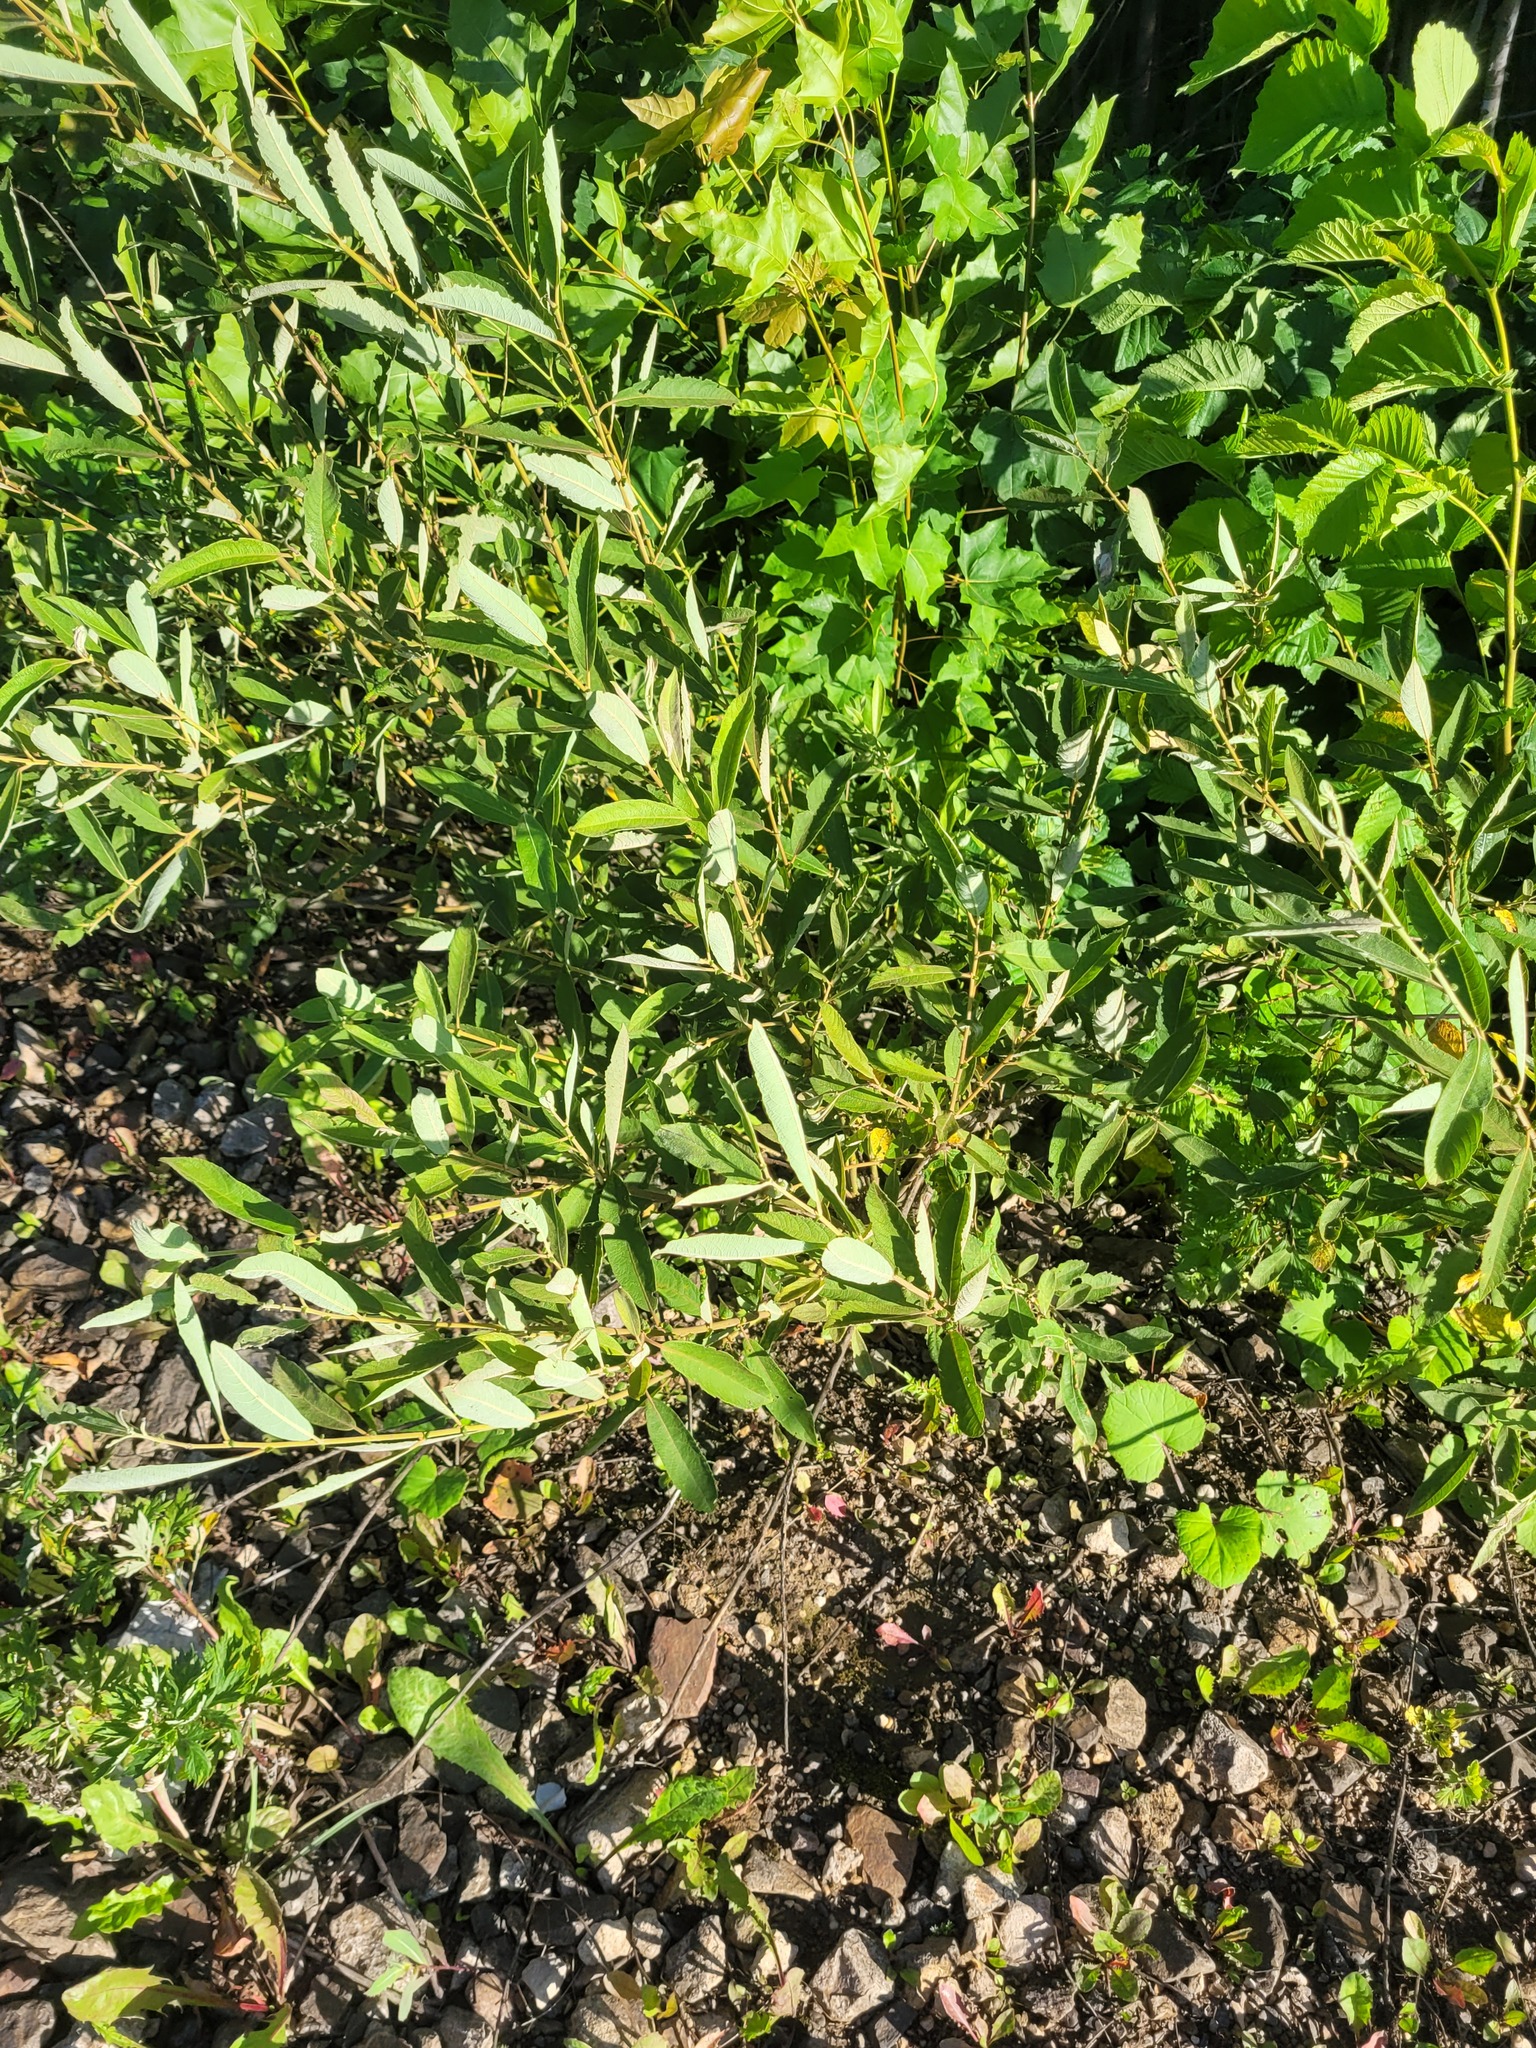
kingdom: Plantae
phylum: Tracheophyta
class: Magnoliopsida
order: Malpighiales
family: Salicaceae
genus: Salix
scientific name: Salix cinerea
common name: Common sallow
